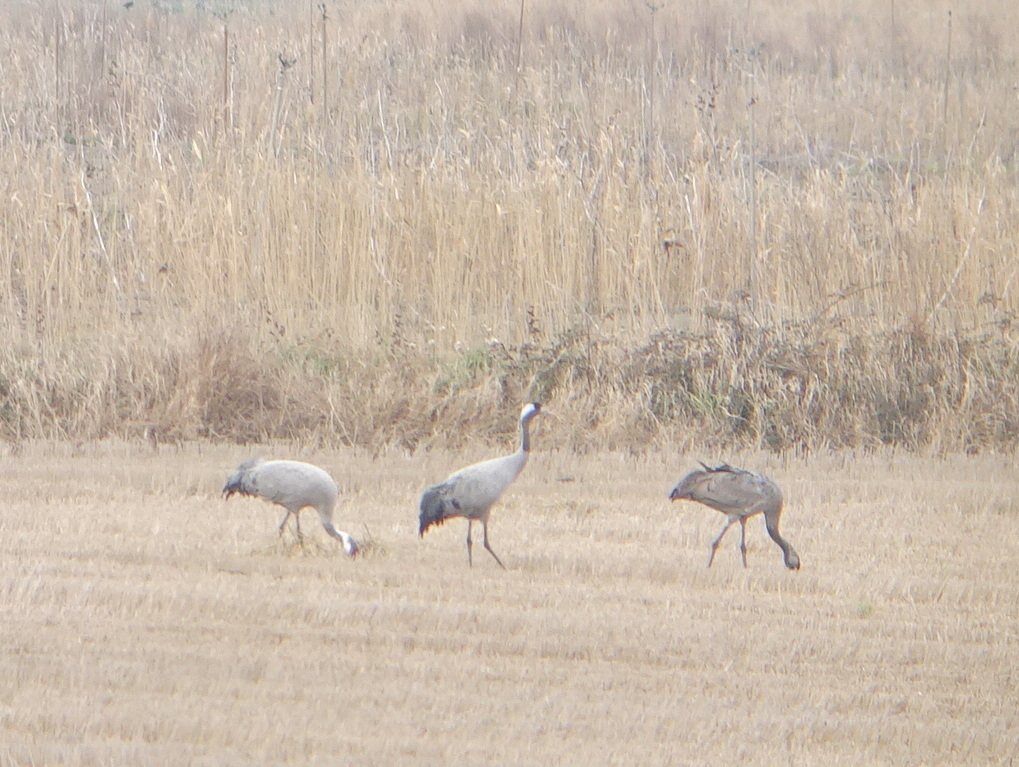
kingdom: Animalia
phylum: Chordata
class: Aves
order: Gruiformes
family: Gruidae
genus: Grus
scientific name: Grus grus
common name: Common crane
